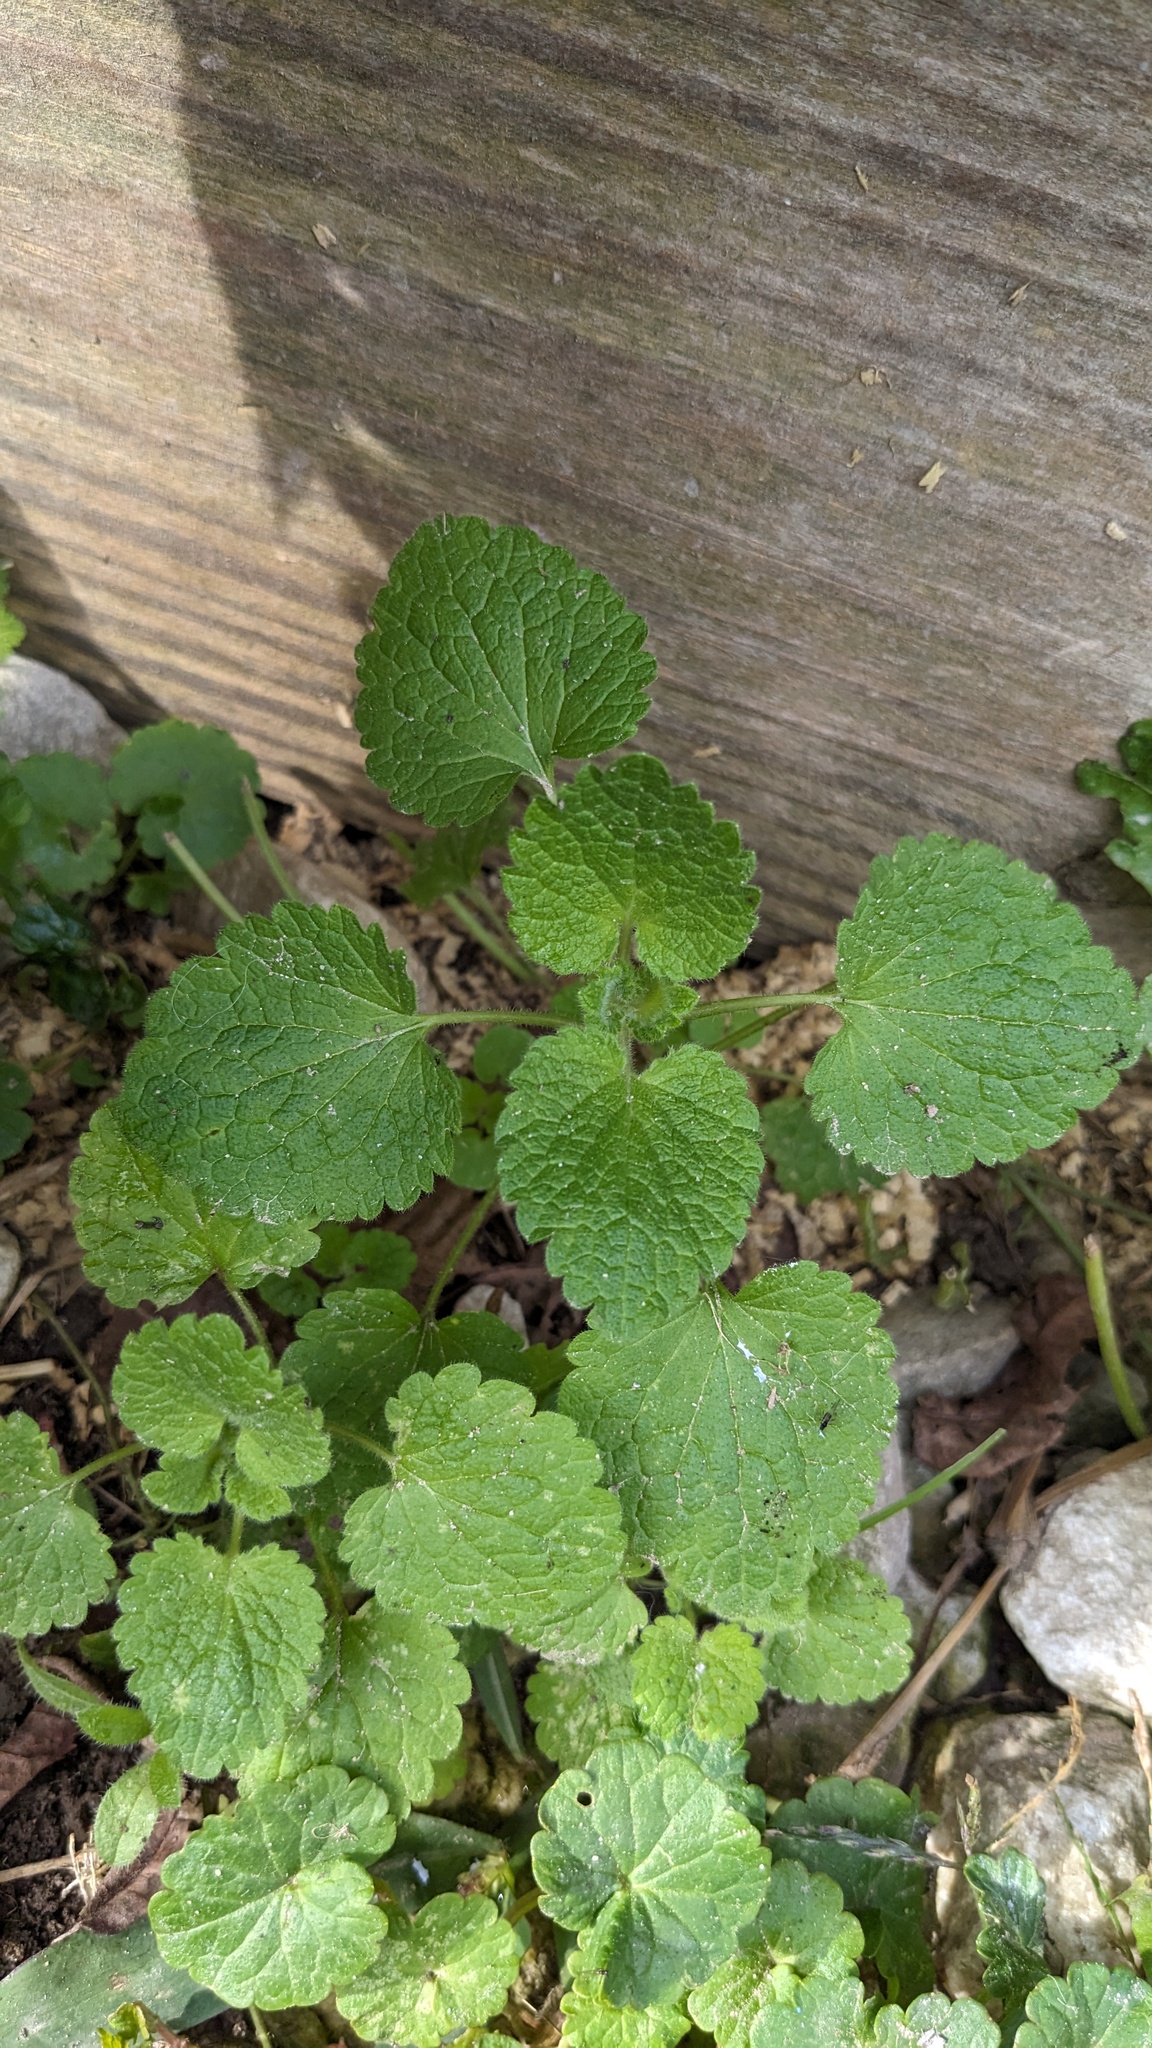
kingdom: Plantae
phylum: Tracheophyta
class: Magnoliopsida
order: Lamiales
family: Lamiaceae
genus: Lamium
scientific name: Lamium purpureum
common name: Red dead-nettle
